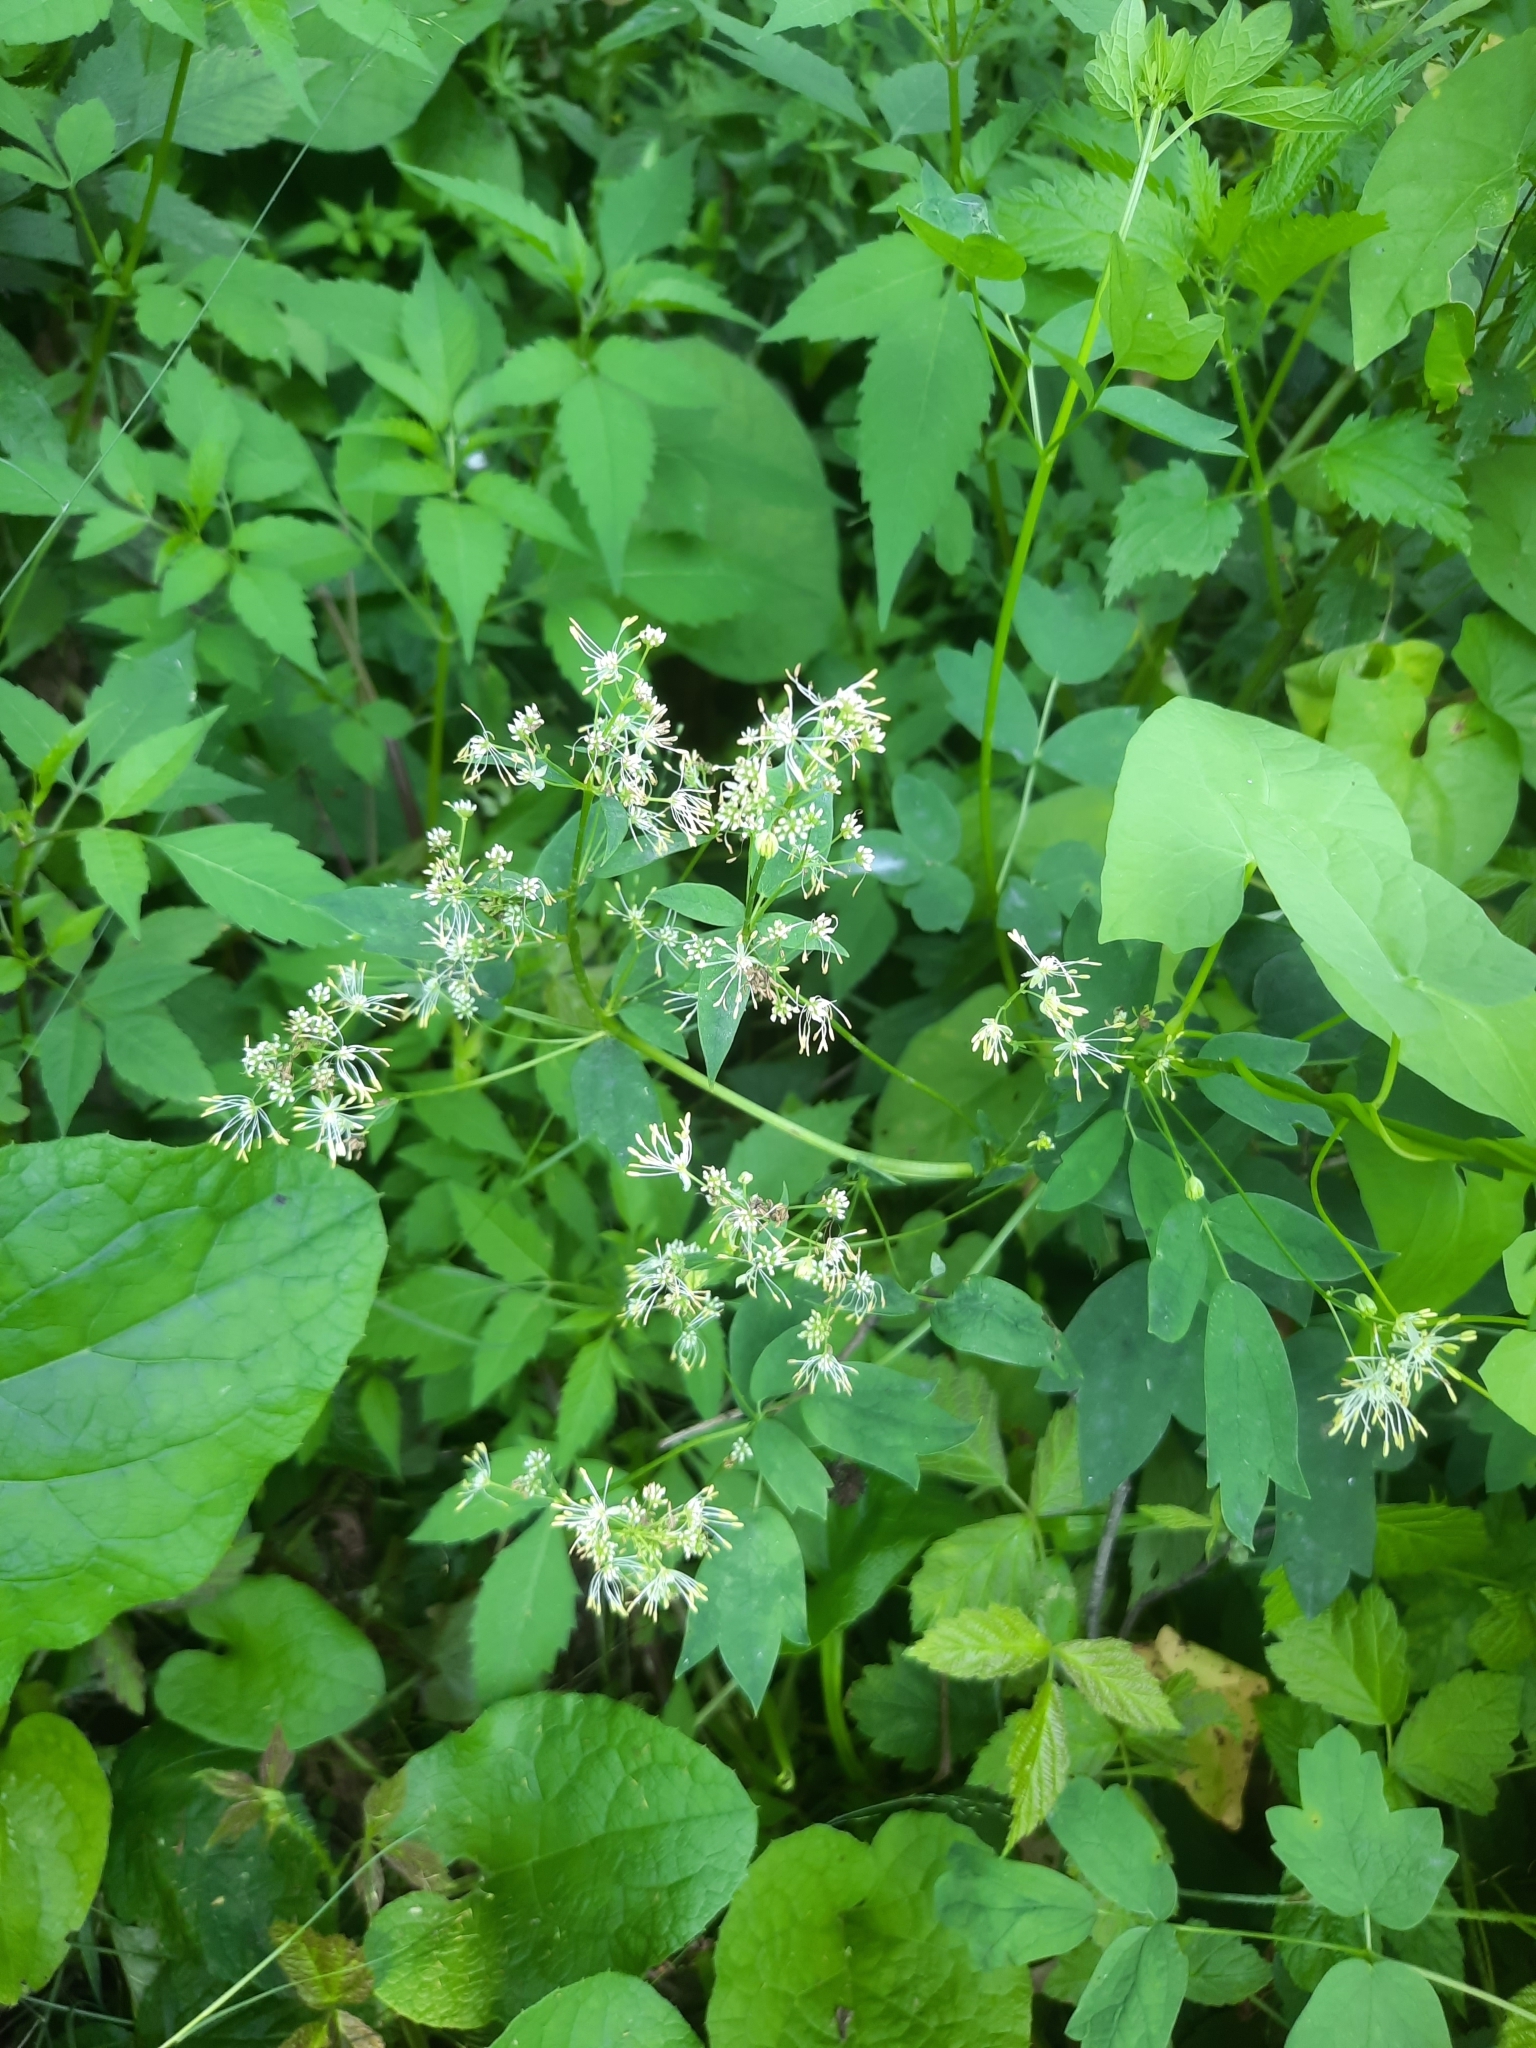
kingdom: Plantae
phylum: Tracheophyta
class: Magnoliopsida
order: Ranunculales
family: Ranunculaceae
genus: Thalictrum
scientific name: Thalictrum flavum
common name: Common meadow-rue
